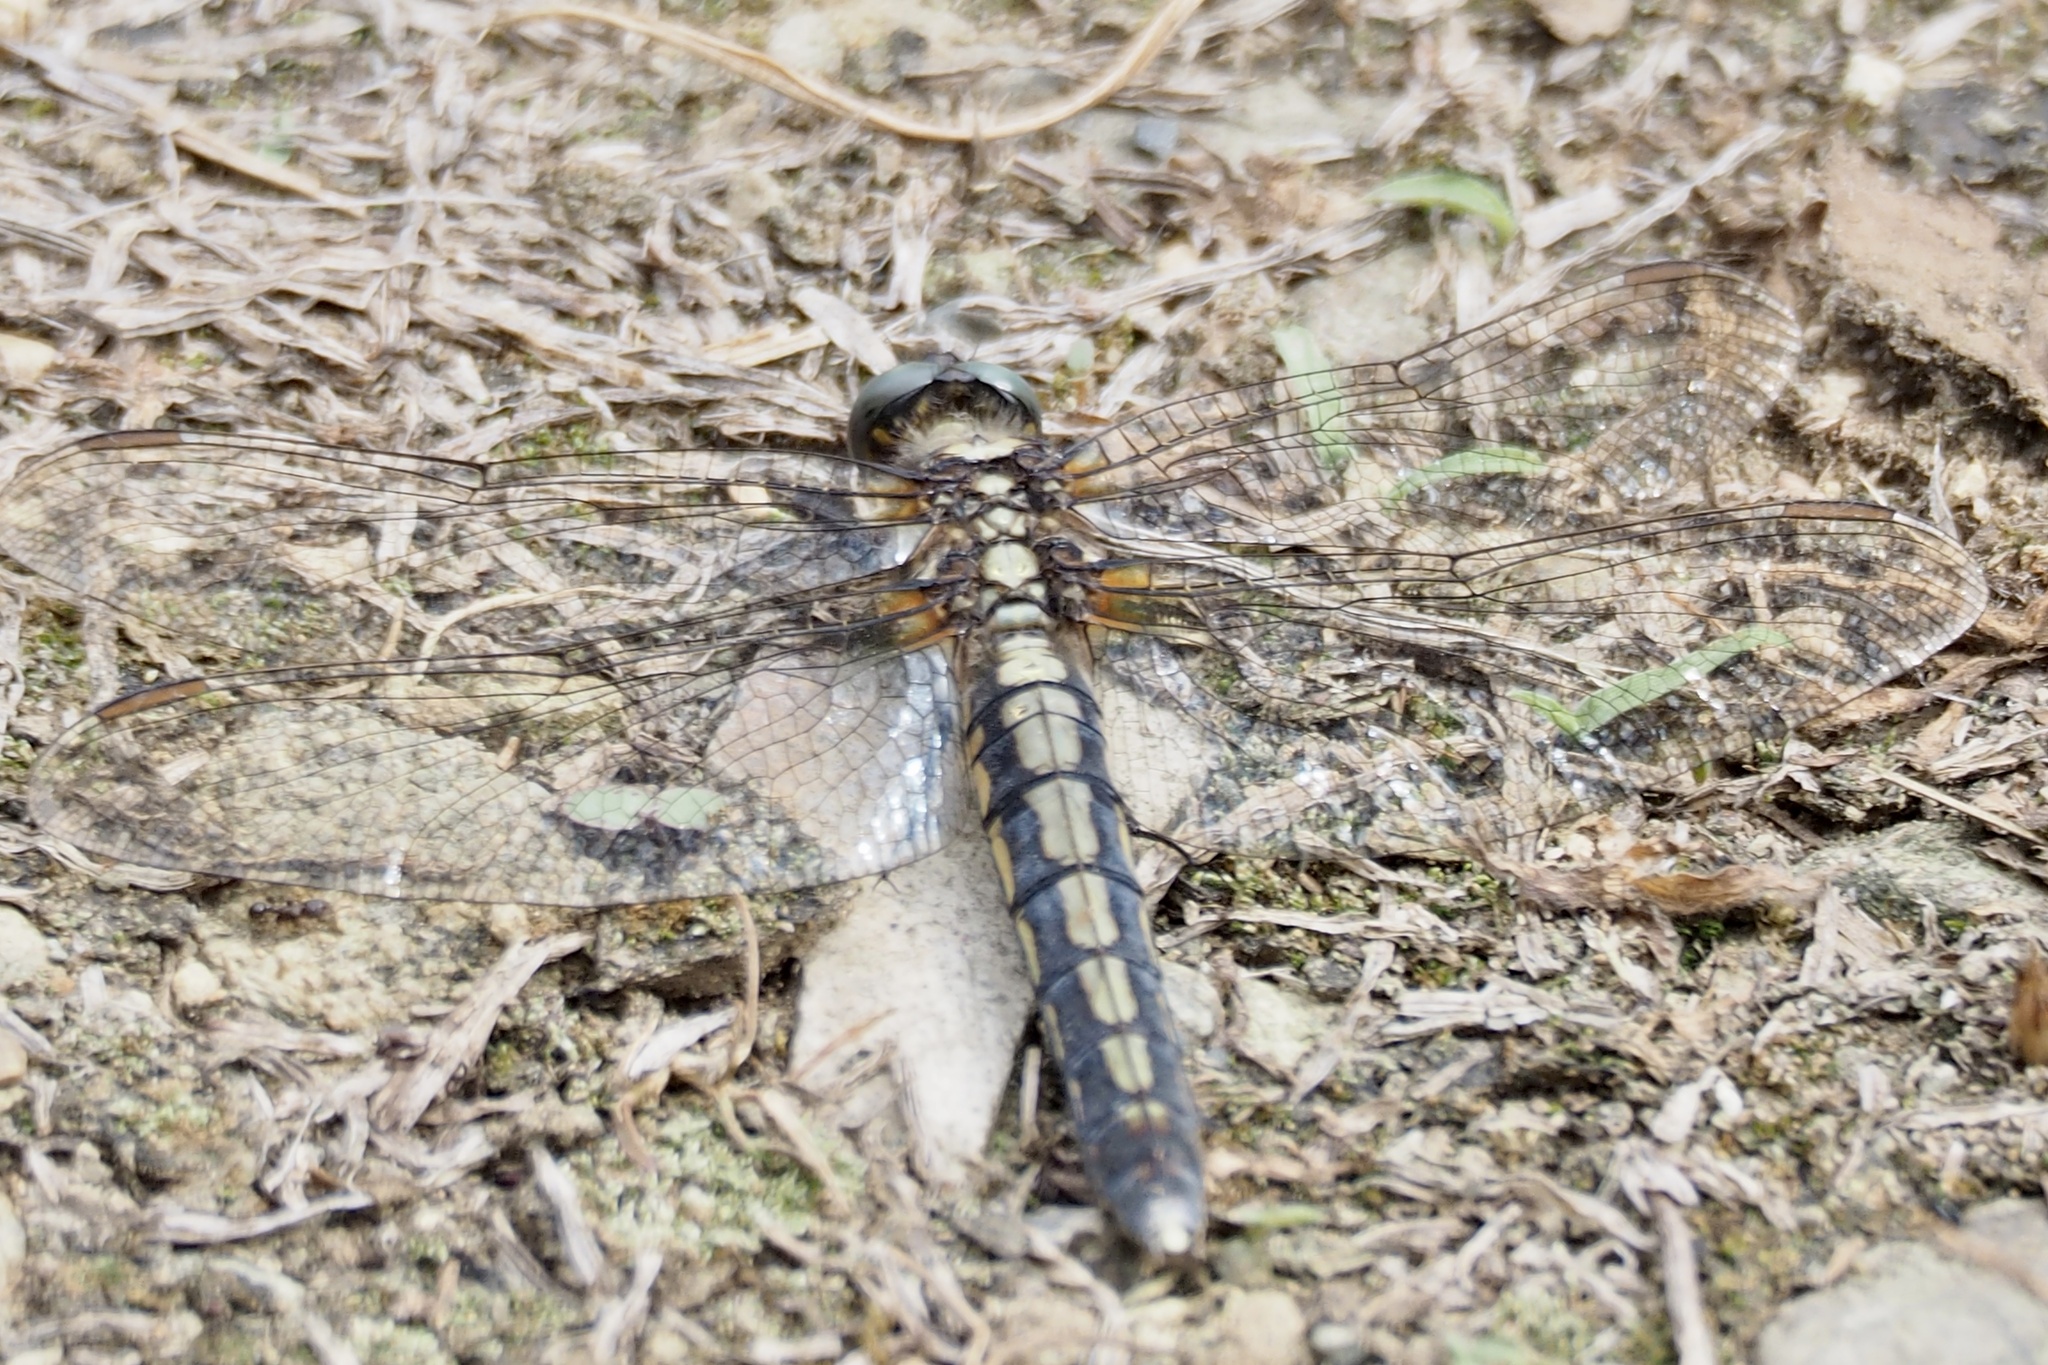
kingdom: Animalia
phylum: Arthropoda
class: Insecta
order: Odonata
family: Libellulidae
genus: Orthetrum
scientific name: Orthetrum japonicum
